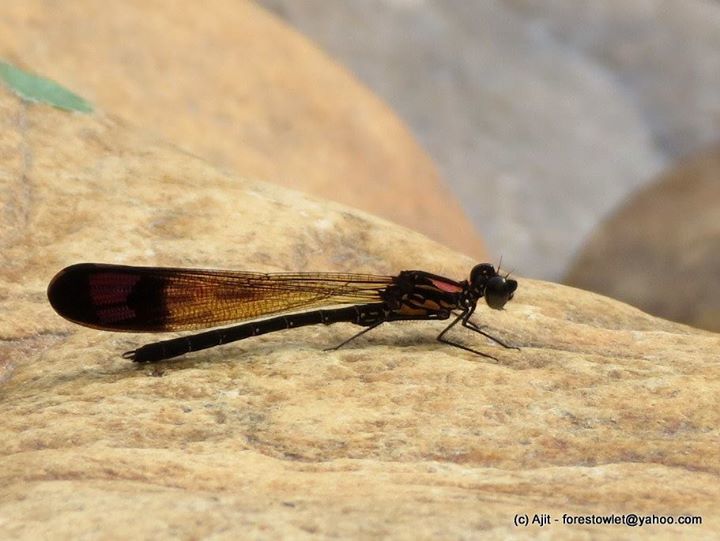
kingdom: Animalia
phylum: Arthropoda
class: Insecta
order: Odonata
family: Chlorocyphidae
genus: Heliocypha
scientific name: Heliocypha bisignata
